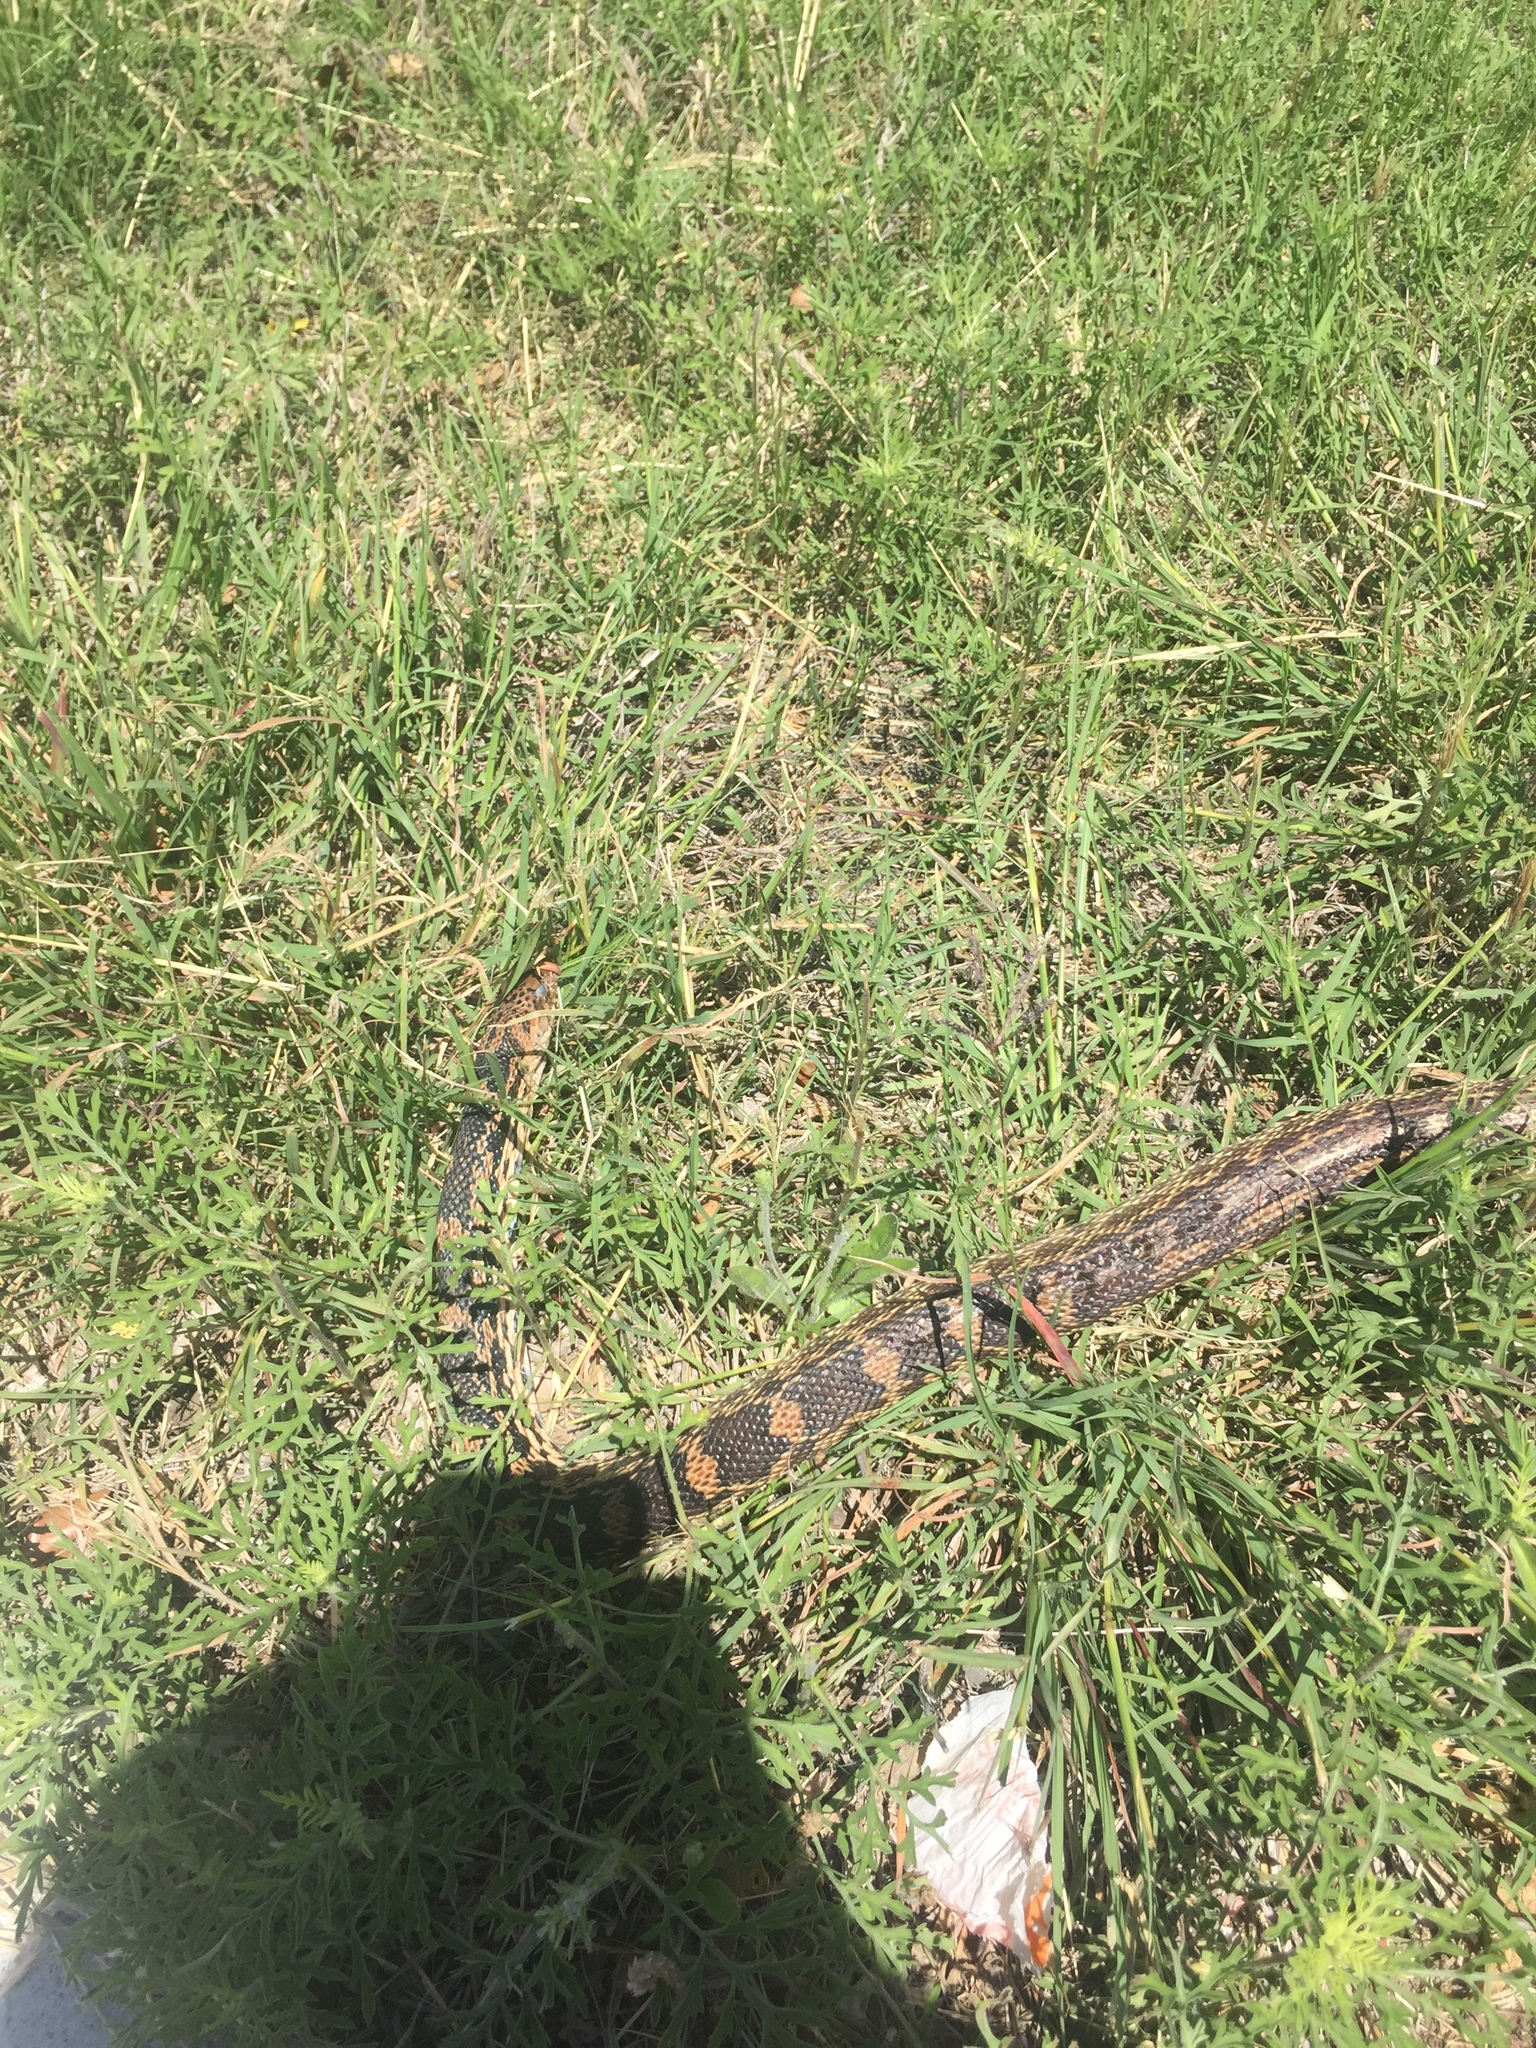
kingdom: Animalia
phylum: Chordata
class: Squamata
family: Colubridae
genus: Pantherophis
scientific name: Pantherophis obsoletus
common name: Black rat snake
